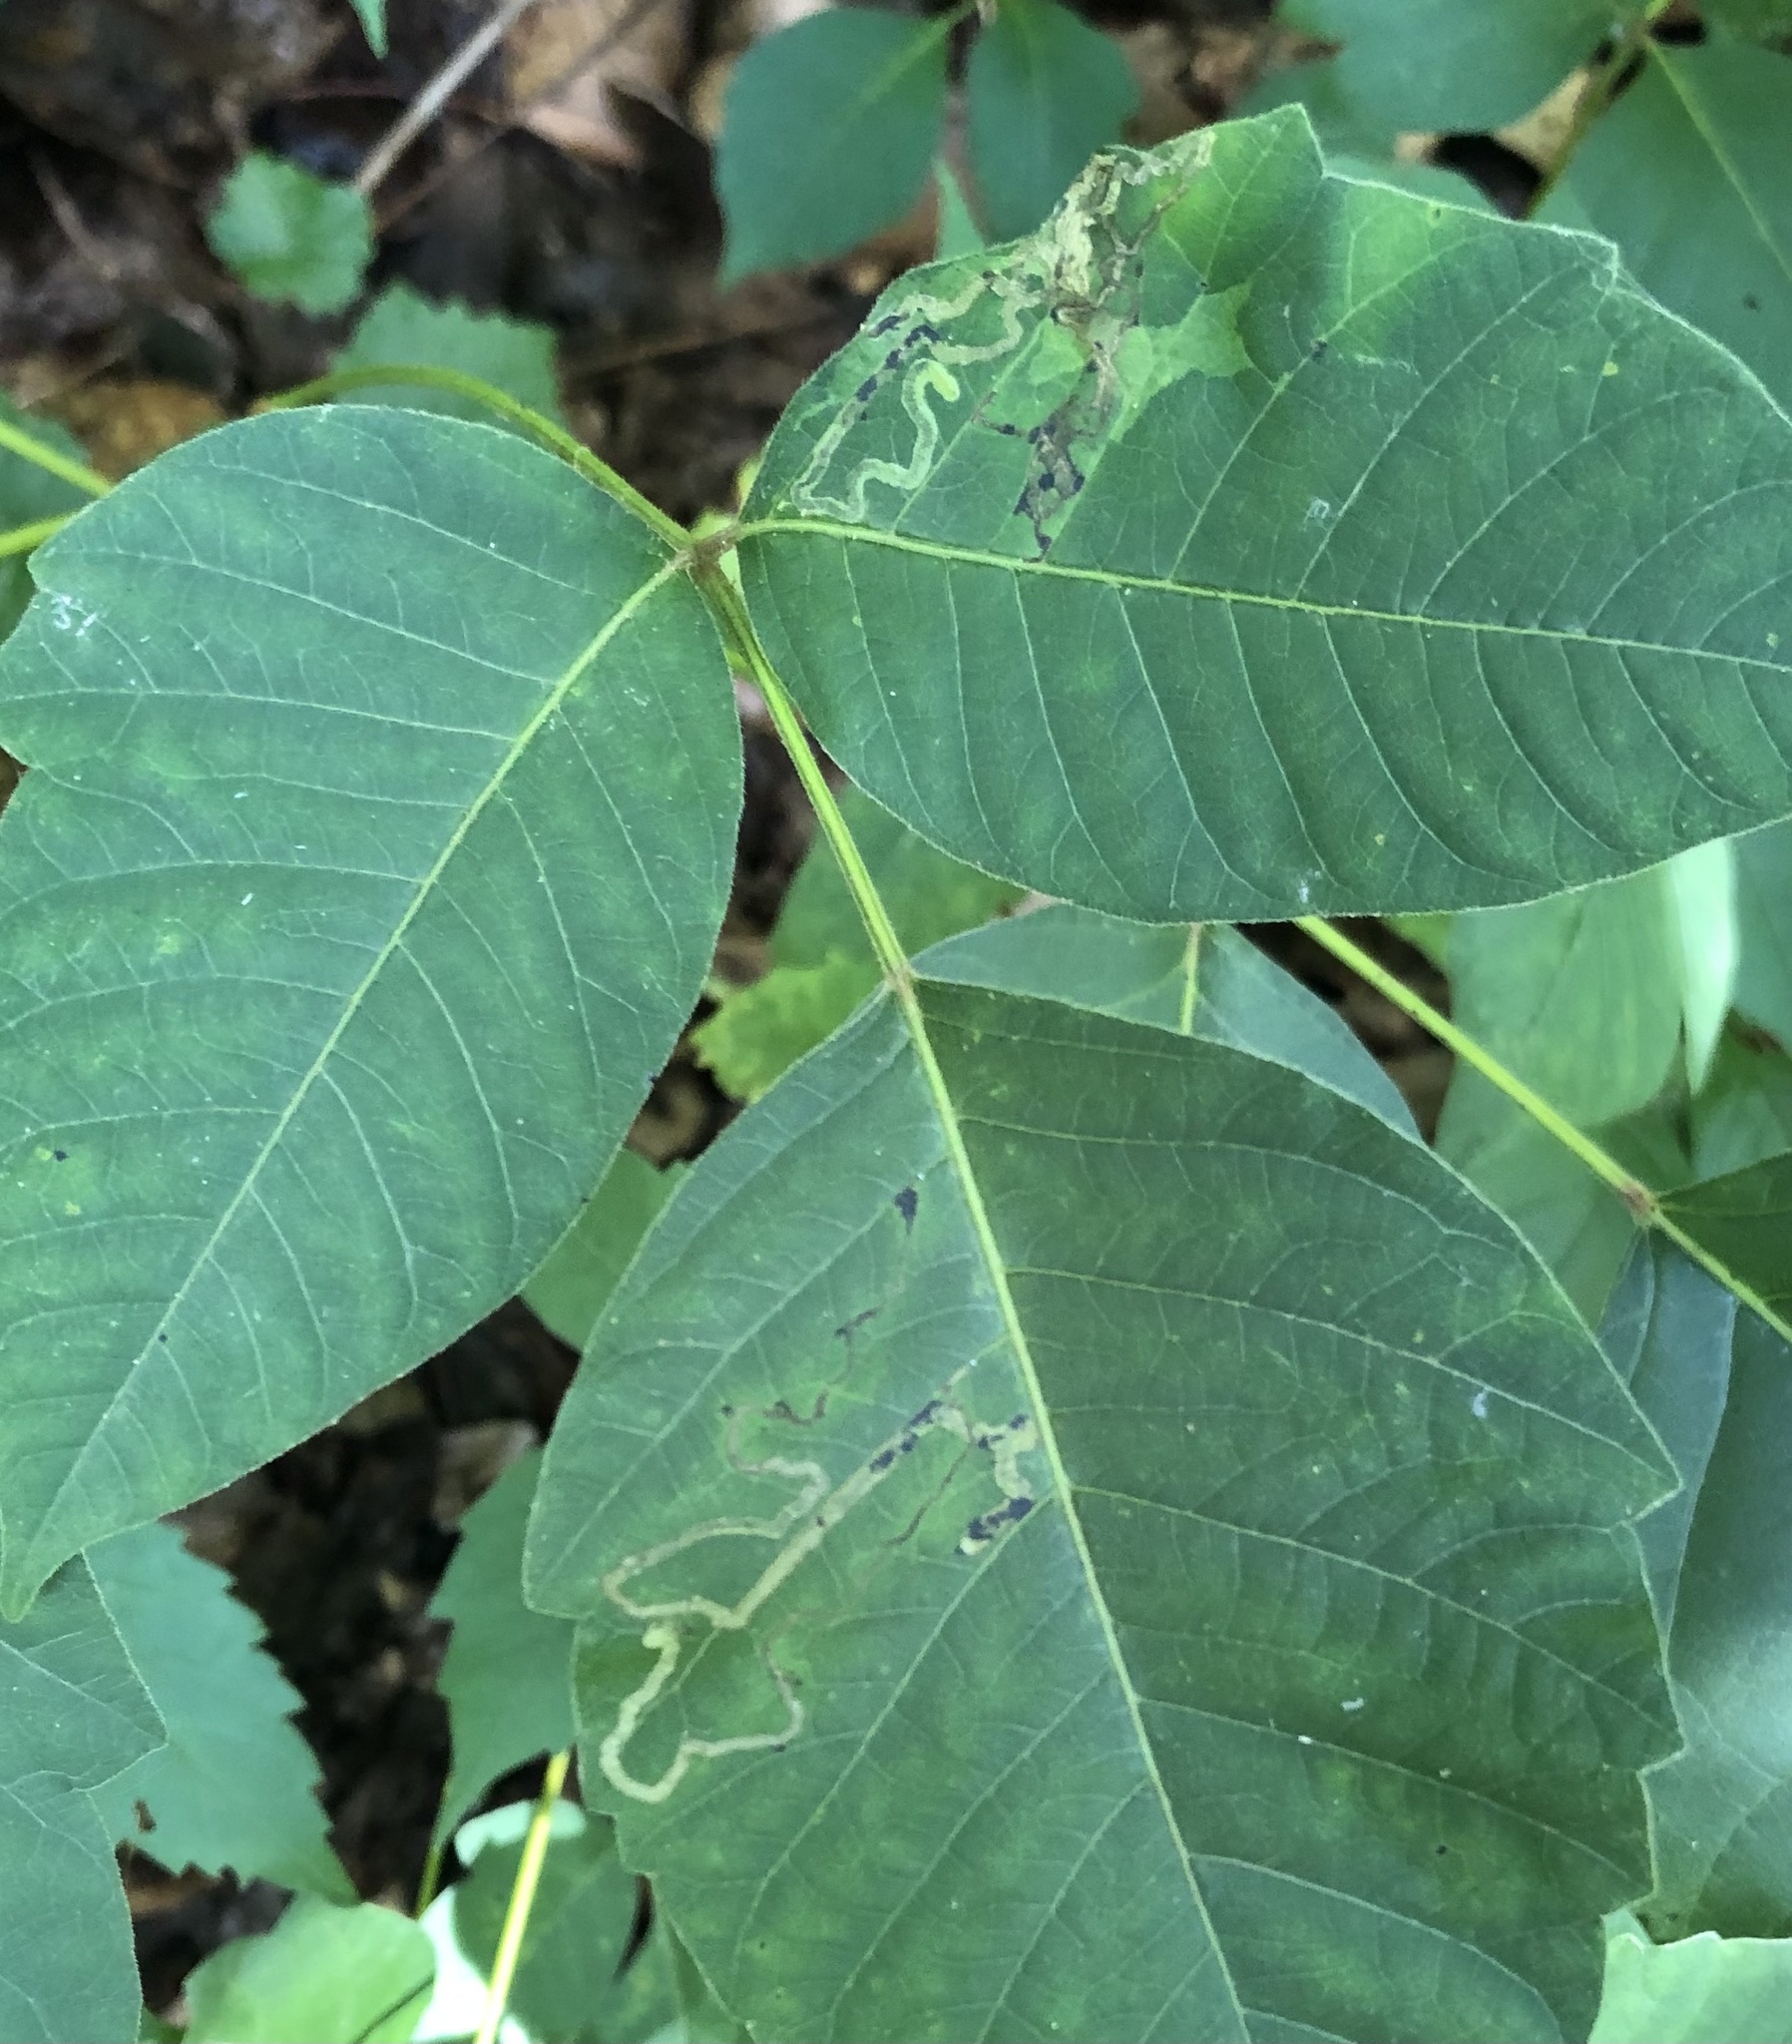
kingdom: Animalia
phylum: Arthropoda
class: Insecta
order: Lepidoptera
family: Nepticulidae
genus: Stigmella
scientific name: Stigmella rhoifoliella
